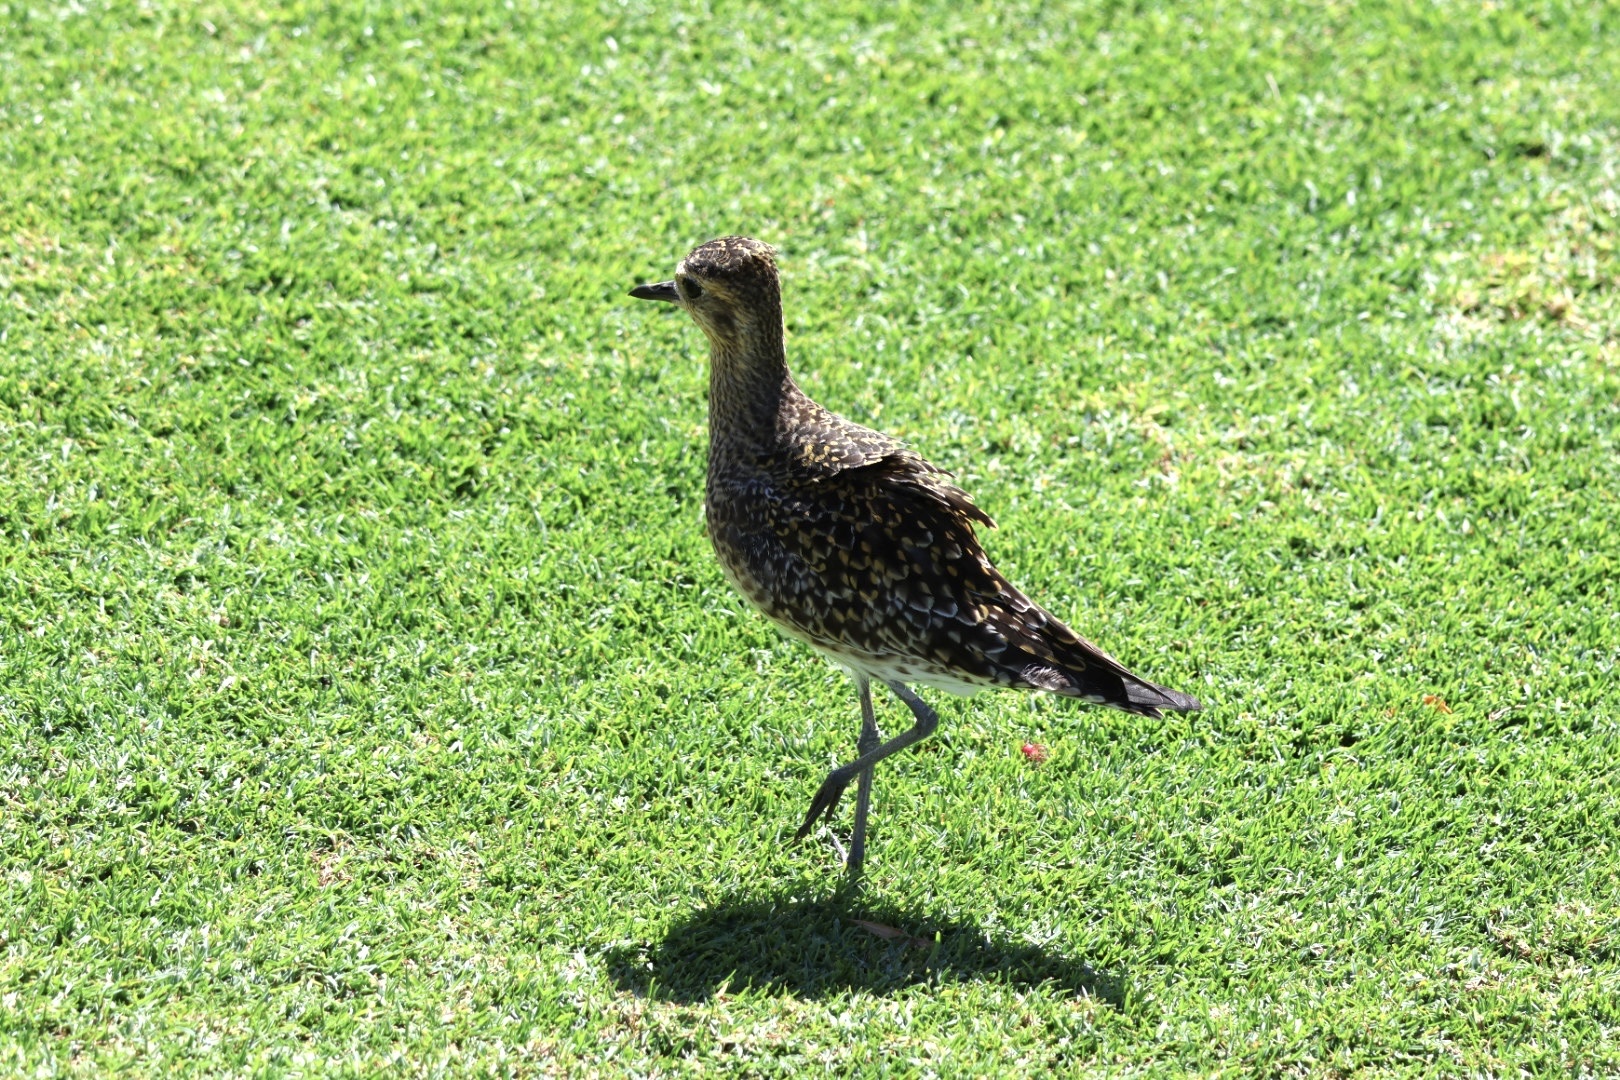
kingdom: Animalia
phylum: Chordata
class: Aves
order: Charadriiformes
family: Charadriidae
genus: Pluvialis
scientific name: Pluvialis fulva
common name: Pacific golden plover
